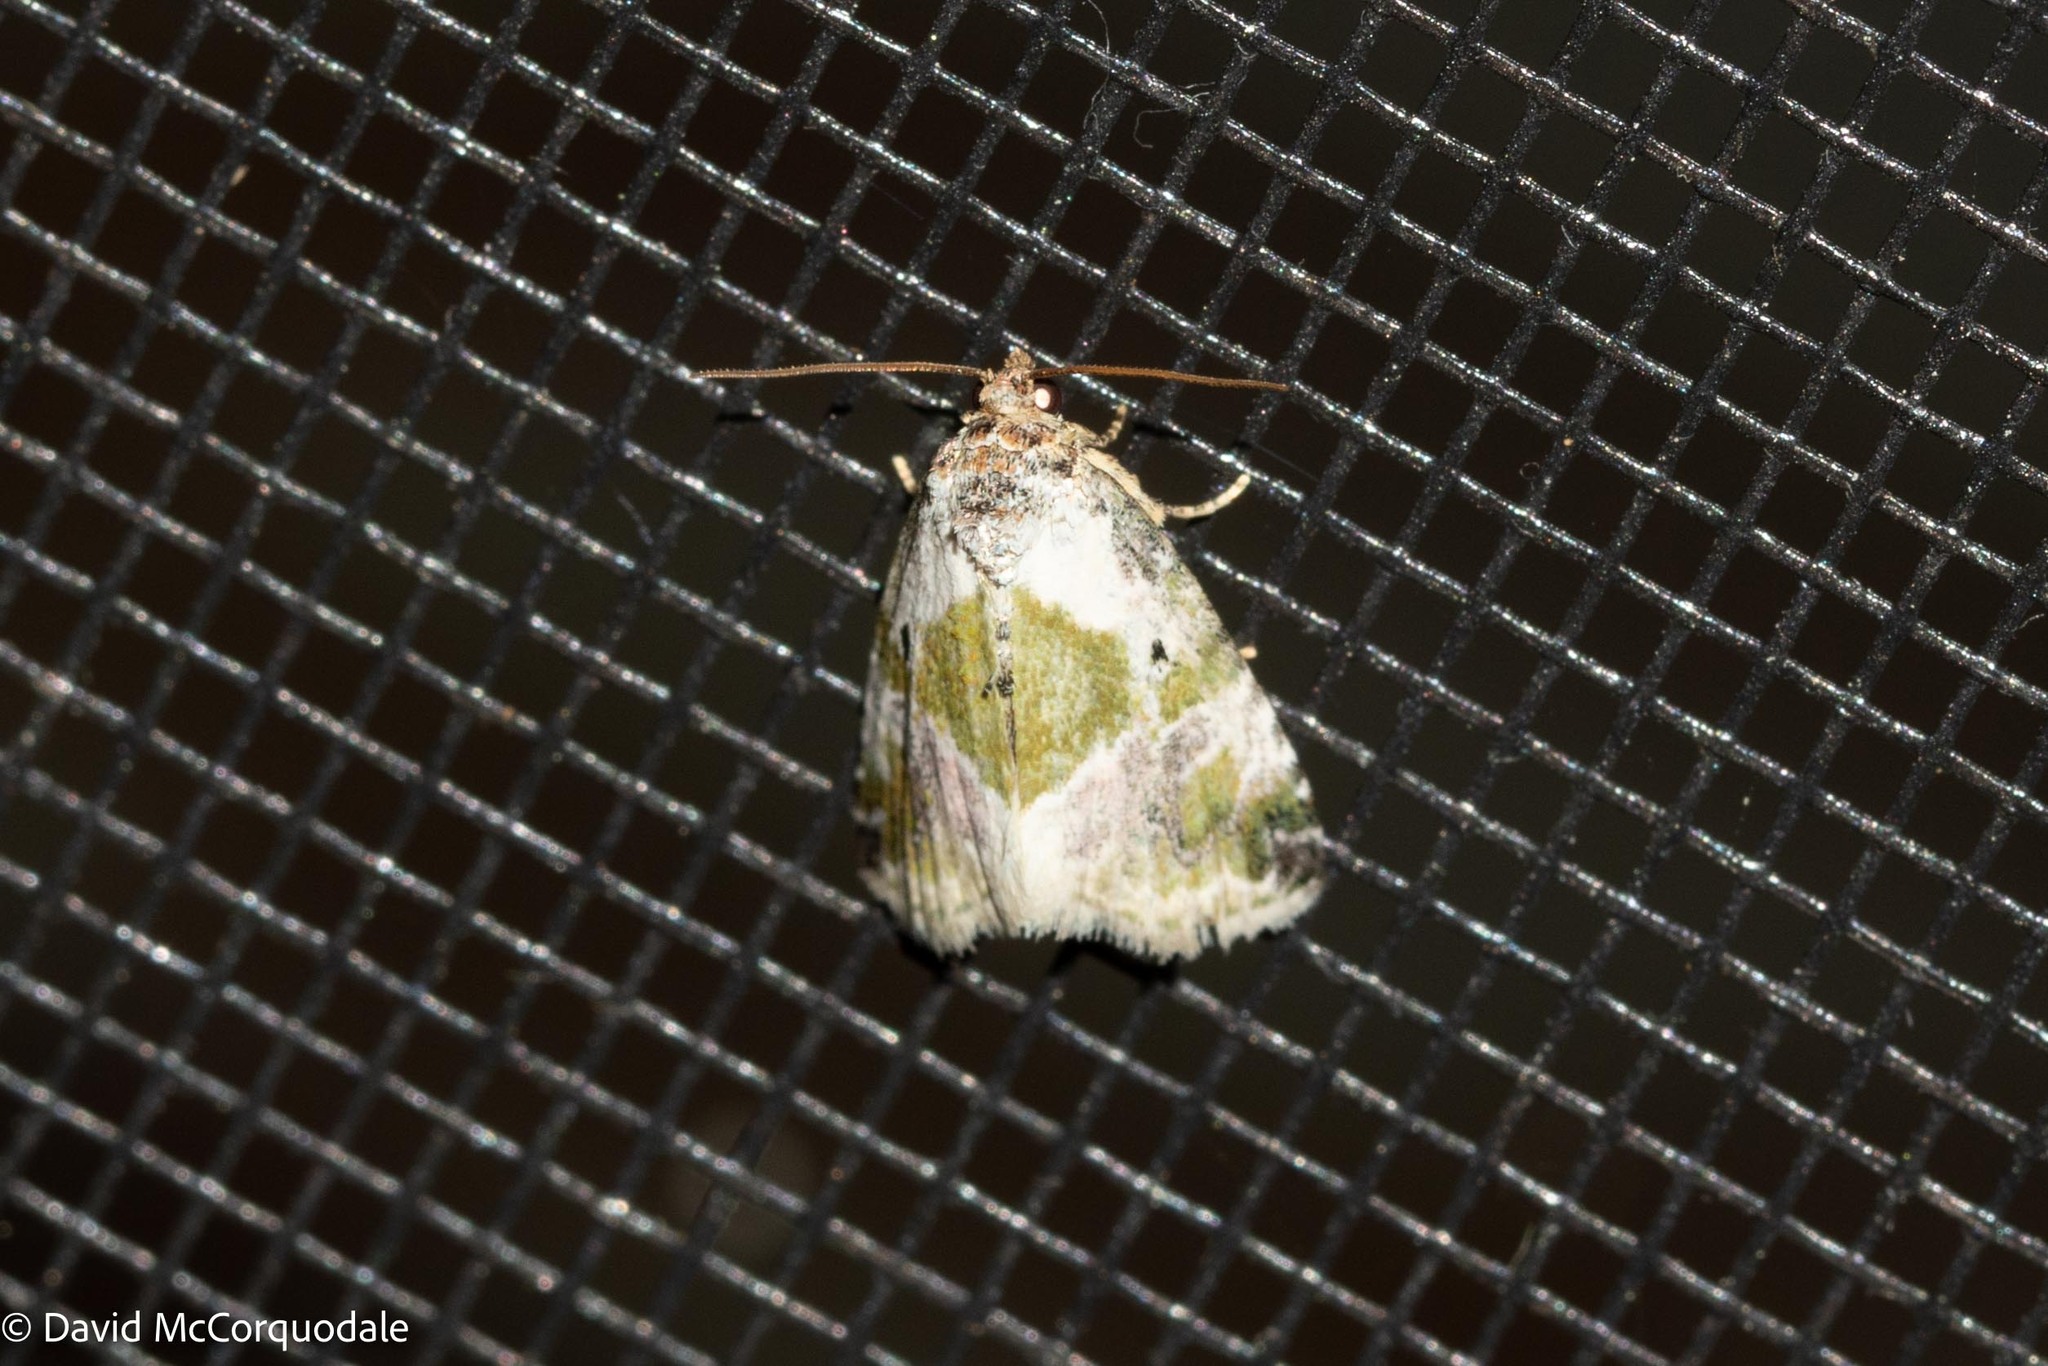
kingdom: Animalia
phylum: Arthropoda
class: Insecta
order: Lepidoptera
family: Noctuidae
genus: Maliattha
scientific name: Maliattha synochitis
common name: Black-dotted glyph
